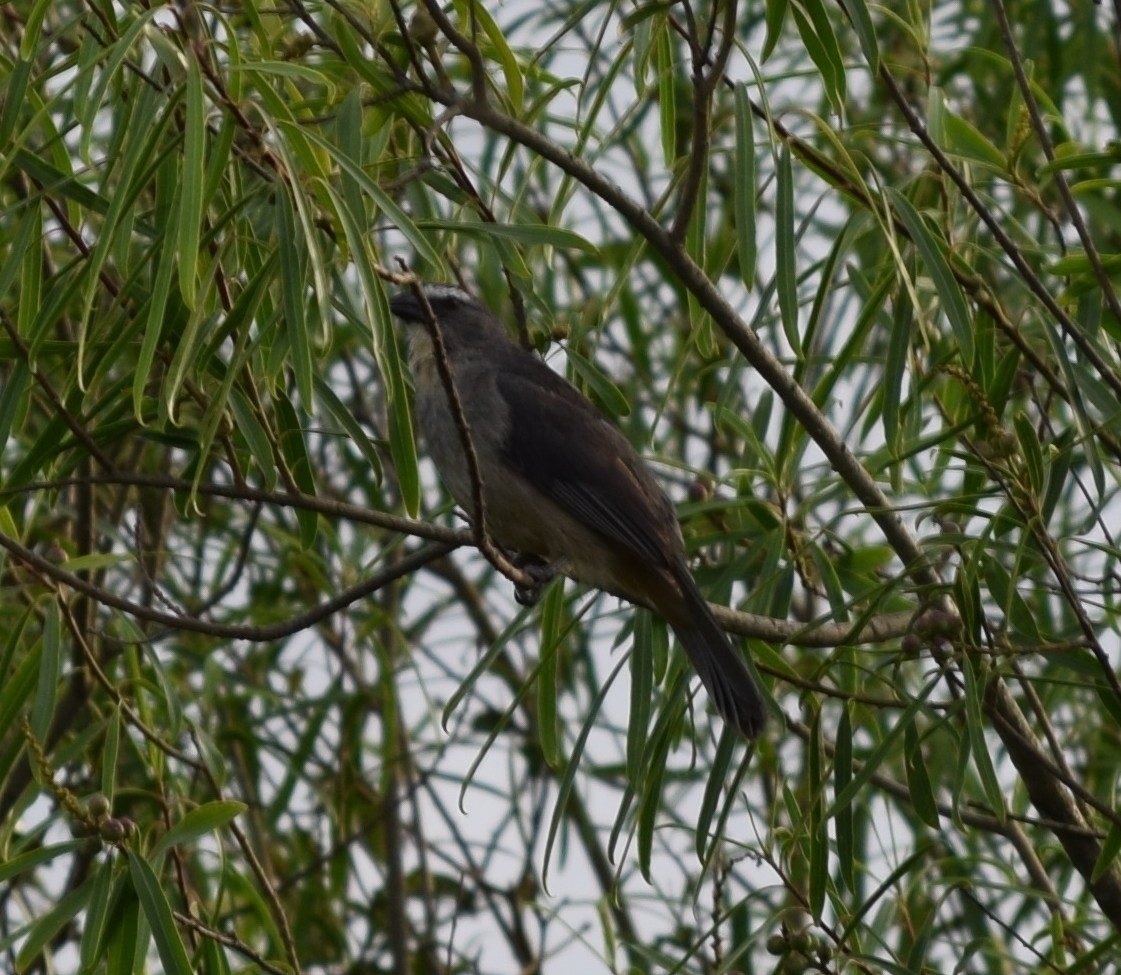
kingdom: Animalia
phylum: Chordata
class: Aves
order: Passeriformes
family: Thraupidae
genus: Saltator
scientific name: Saltator coerulescens
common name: Grayish saltator
